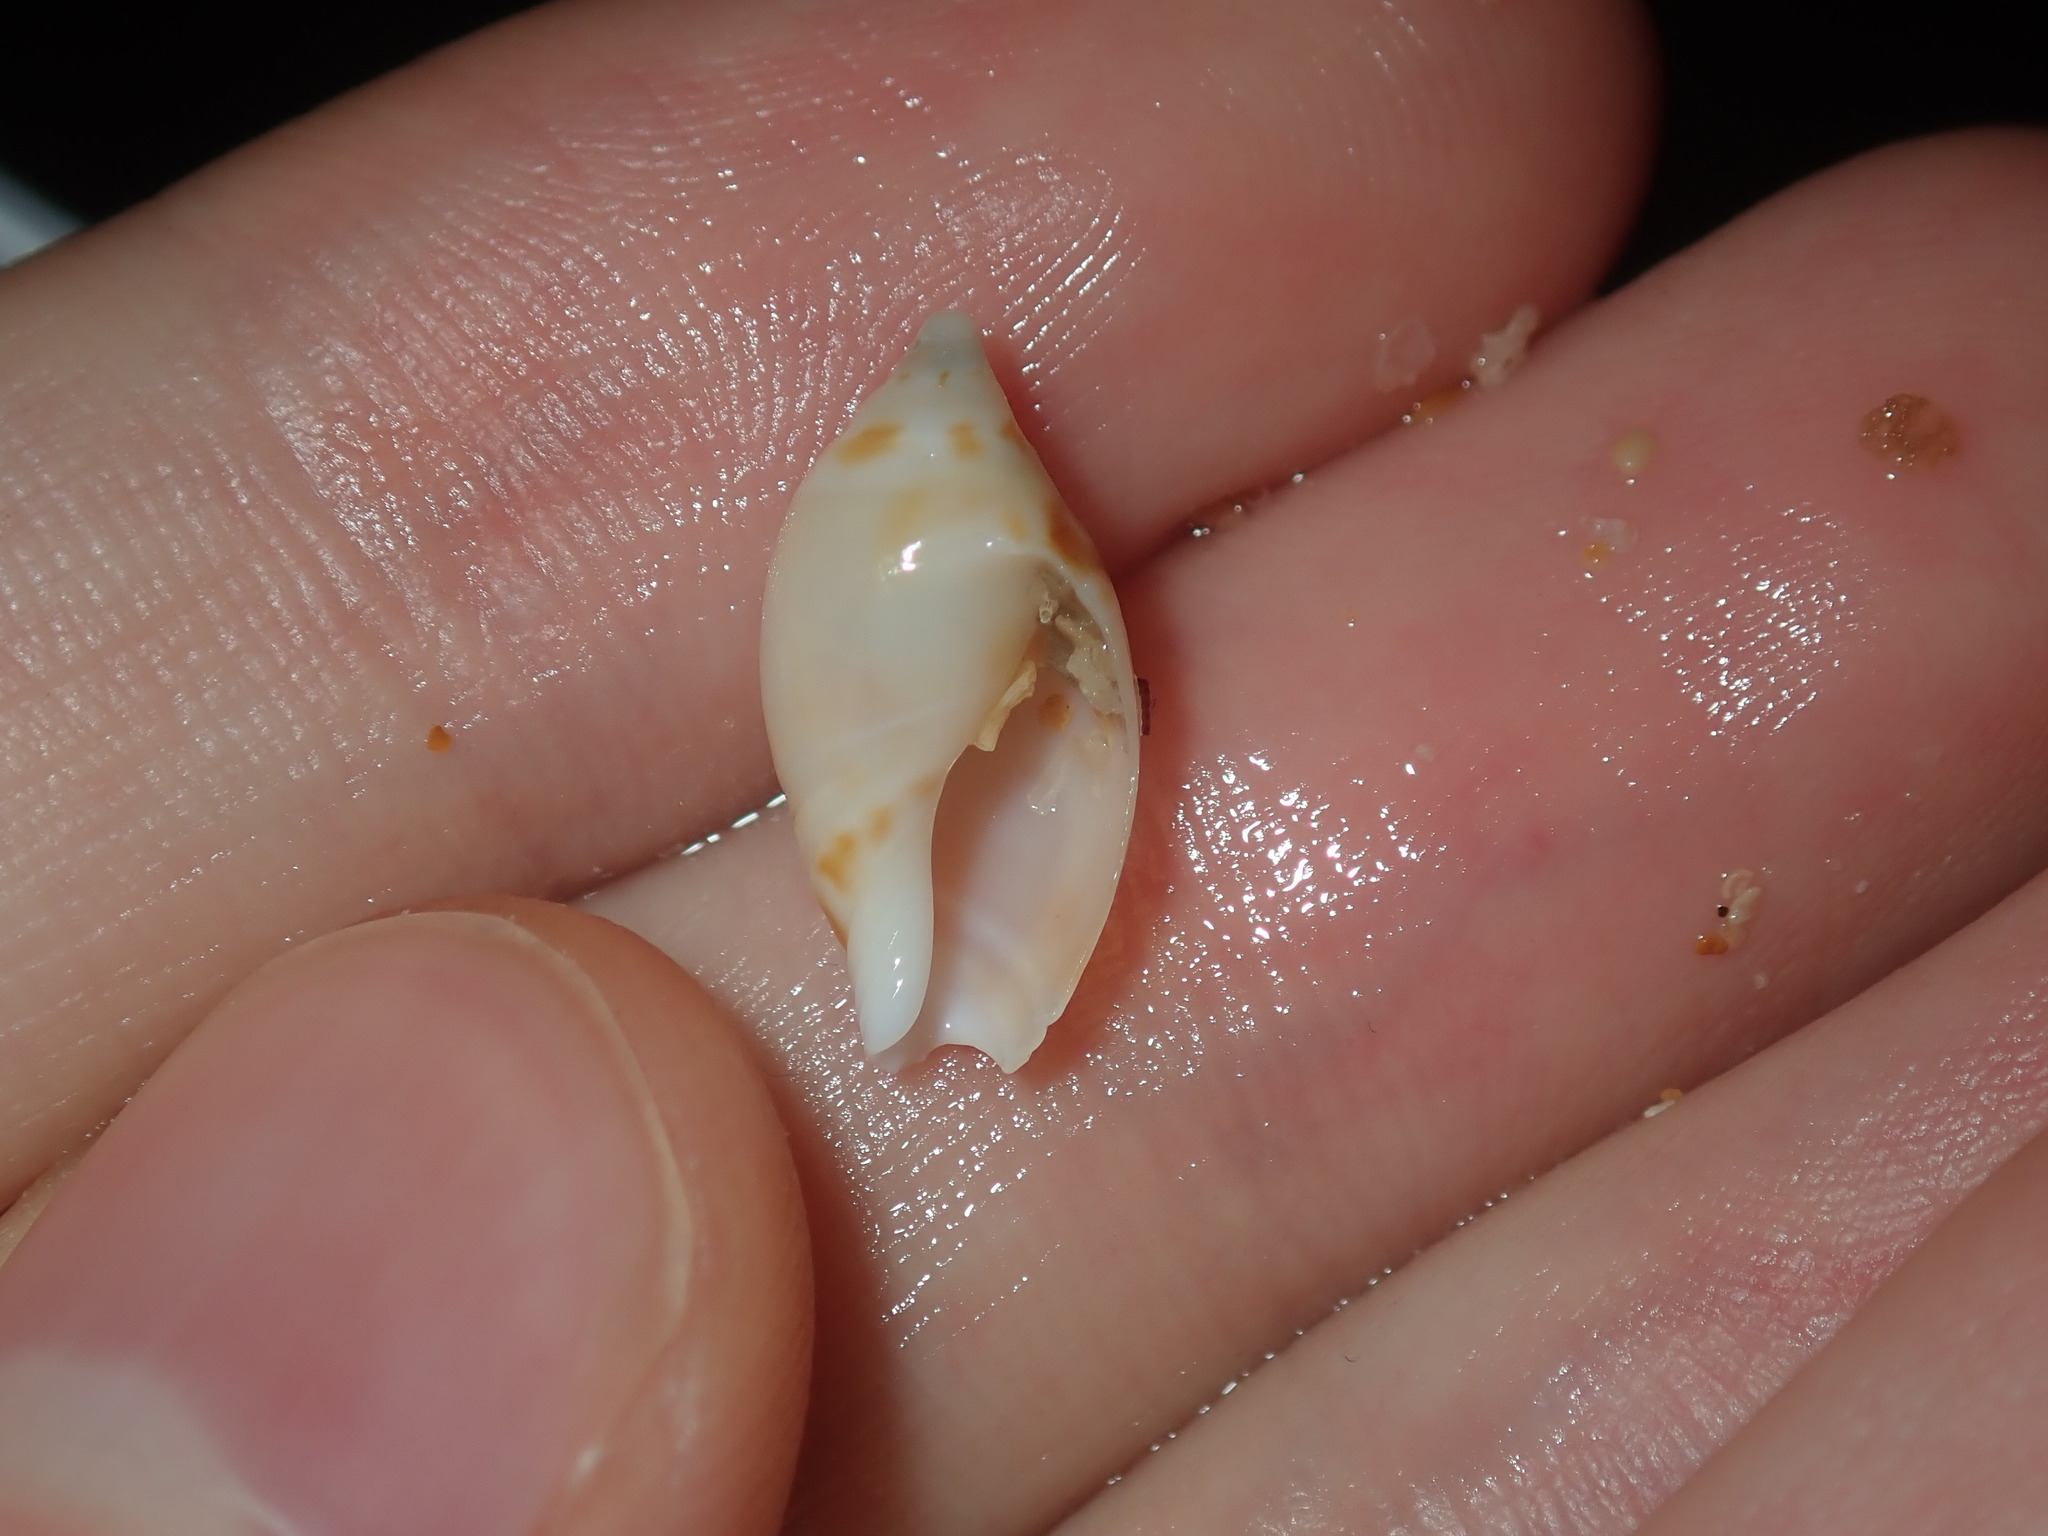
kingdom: Animalia
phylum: Mollusca
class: Gastropoda
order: Neogastropoda
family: Ancillariidae
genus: Amalda
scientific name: Amalda marginata
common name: Margin ancilla
